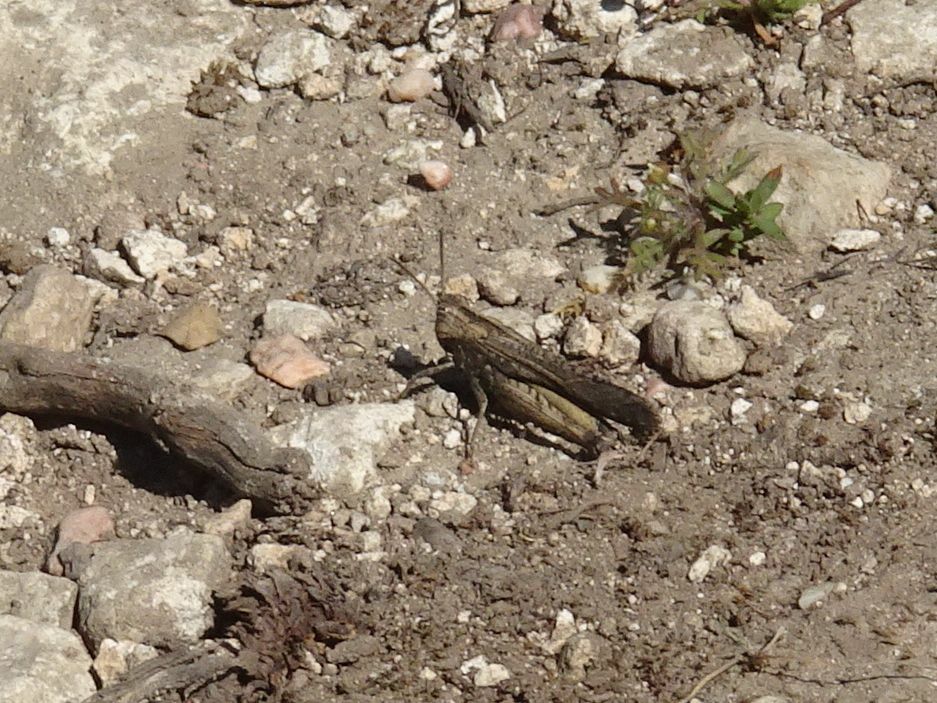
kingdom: Animalia
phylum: Arthropoda
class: Insecta
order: Orthoptera
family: Acrididae
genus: Morphacris
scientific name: Morphacris fasciata
